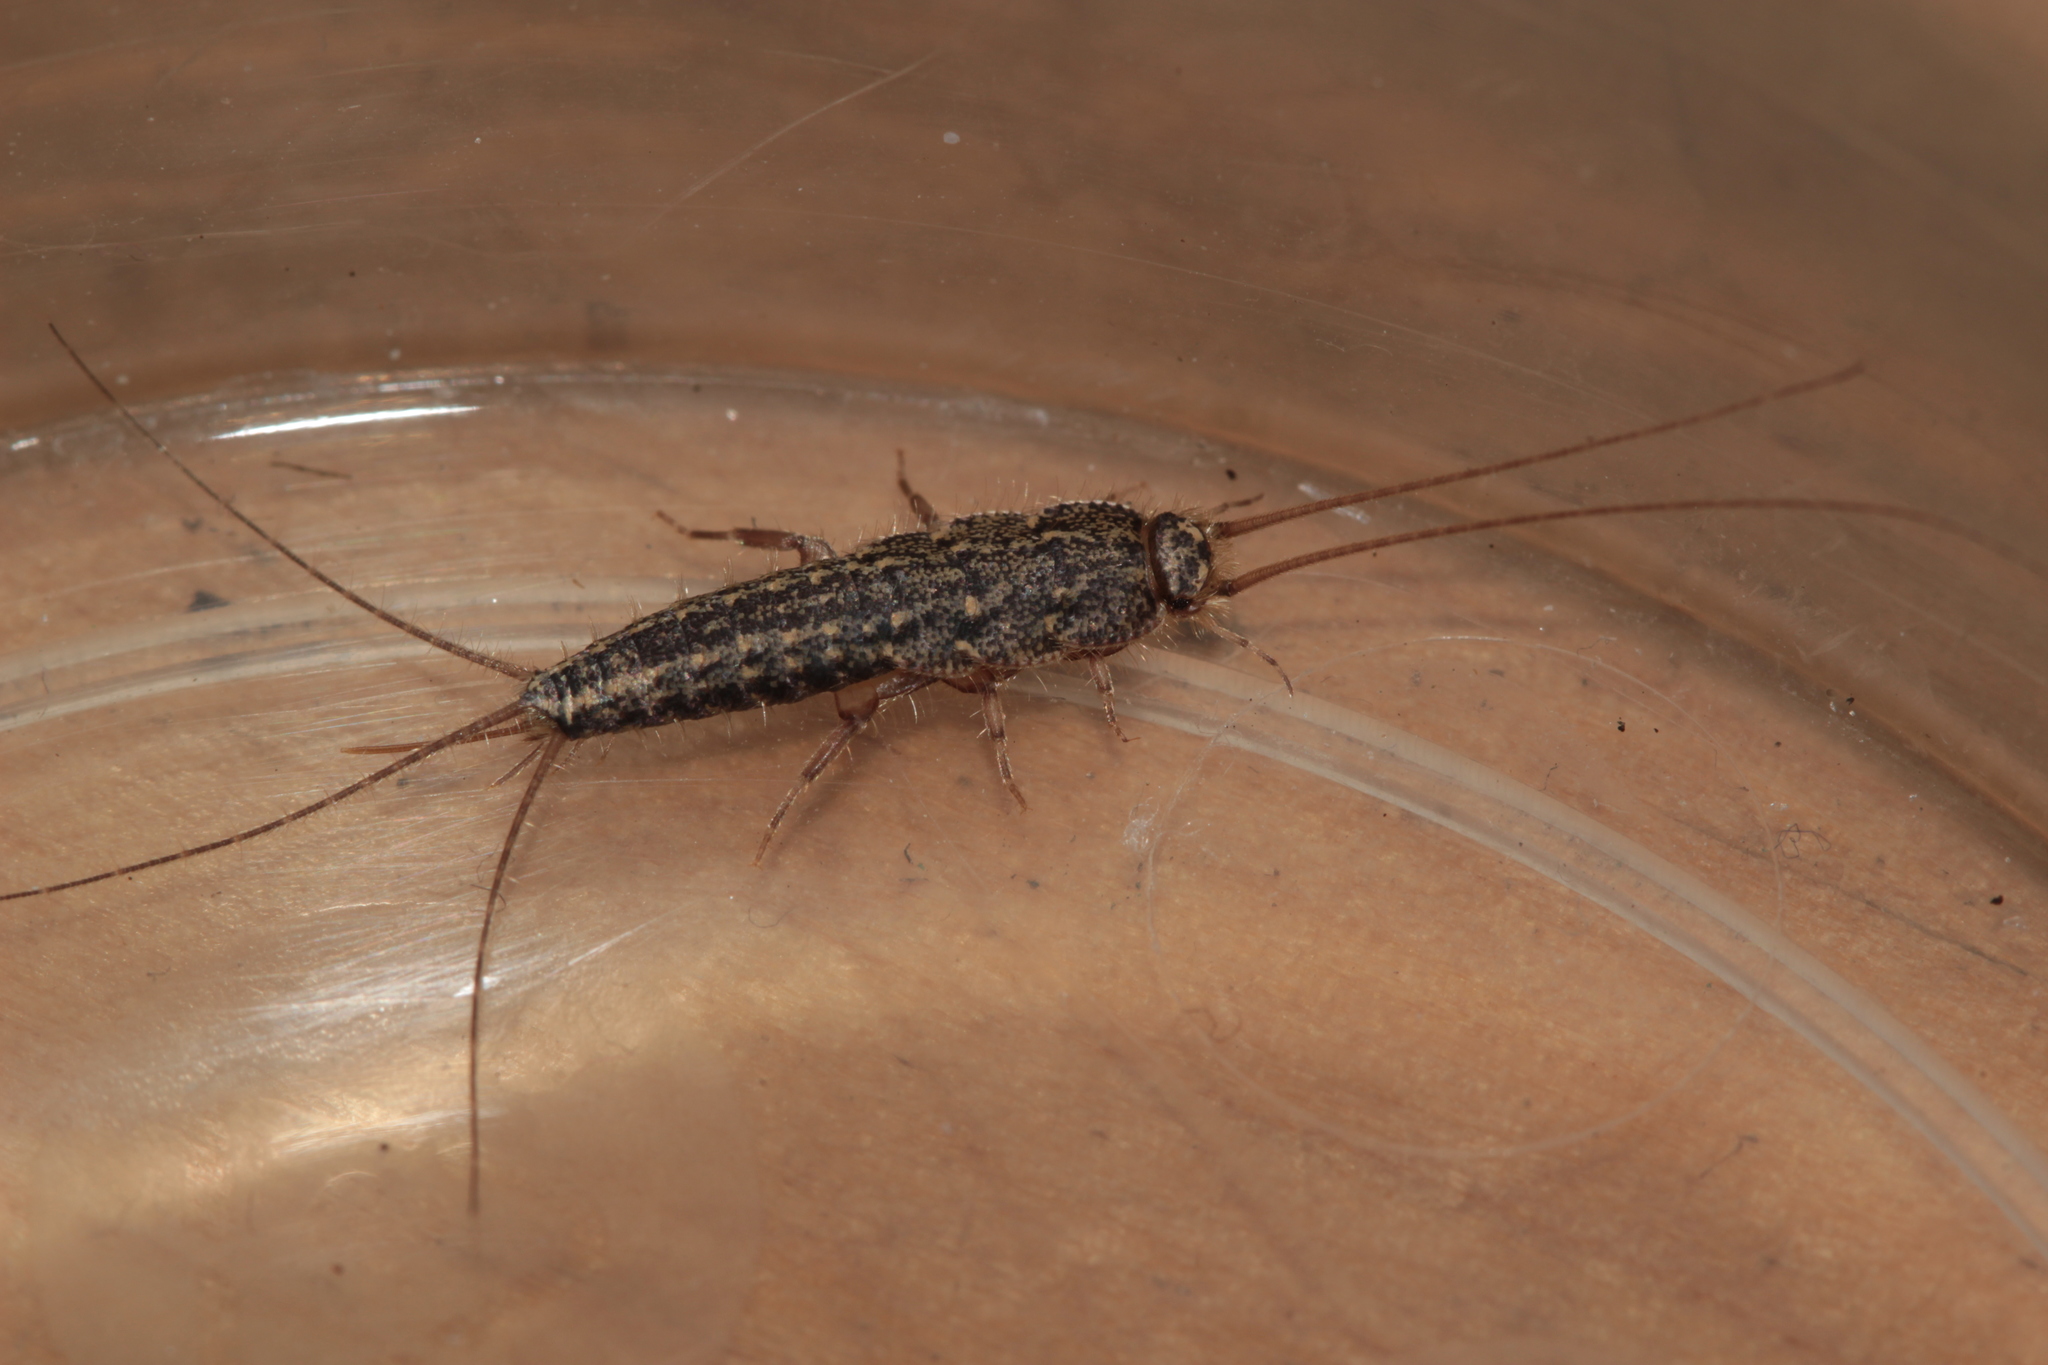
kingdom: Animalia
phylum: Arthropoda
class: Insecta
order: Zygentoma
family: Lepismatidae
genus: Ctenolepisma
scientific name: Ctenolepisma lineata
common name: Four-lined silverfish
